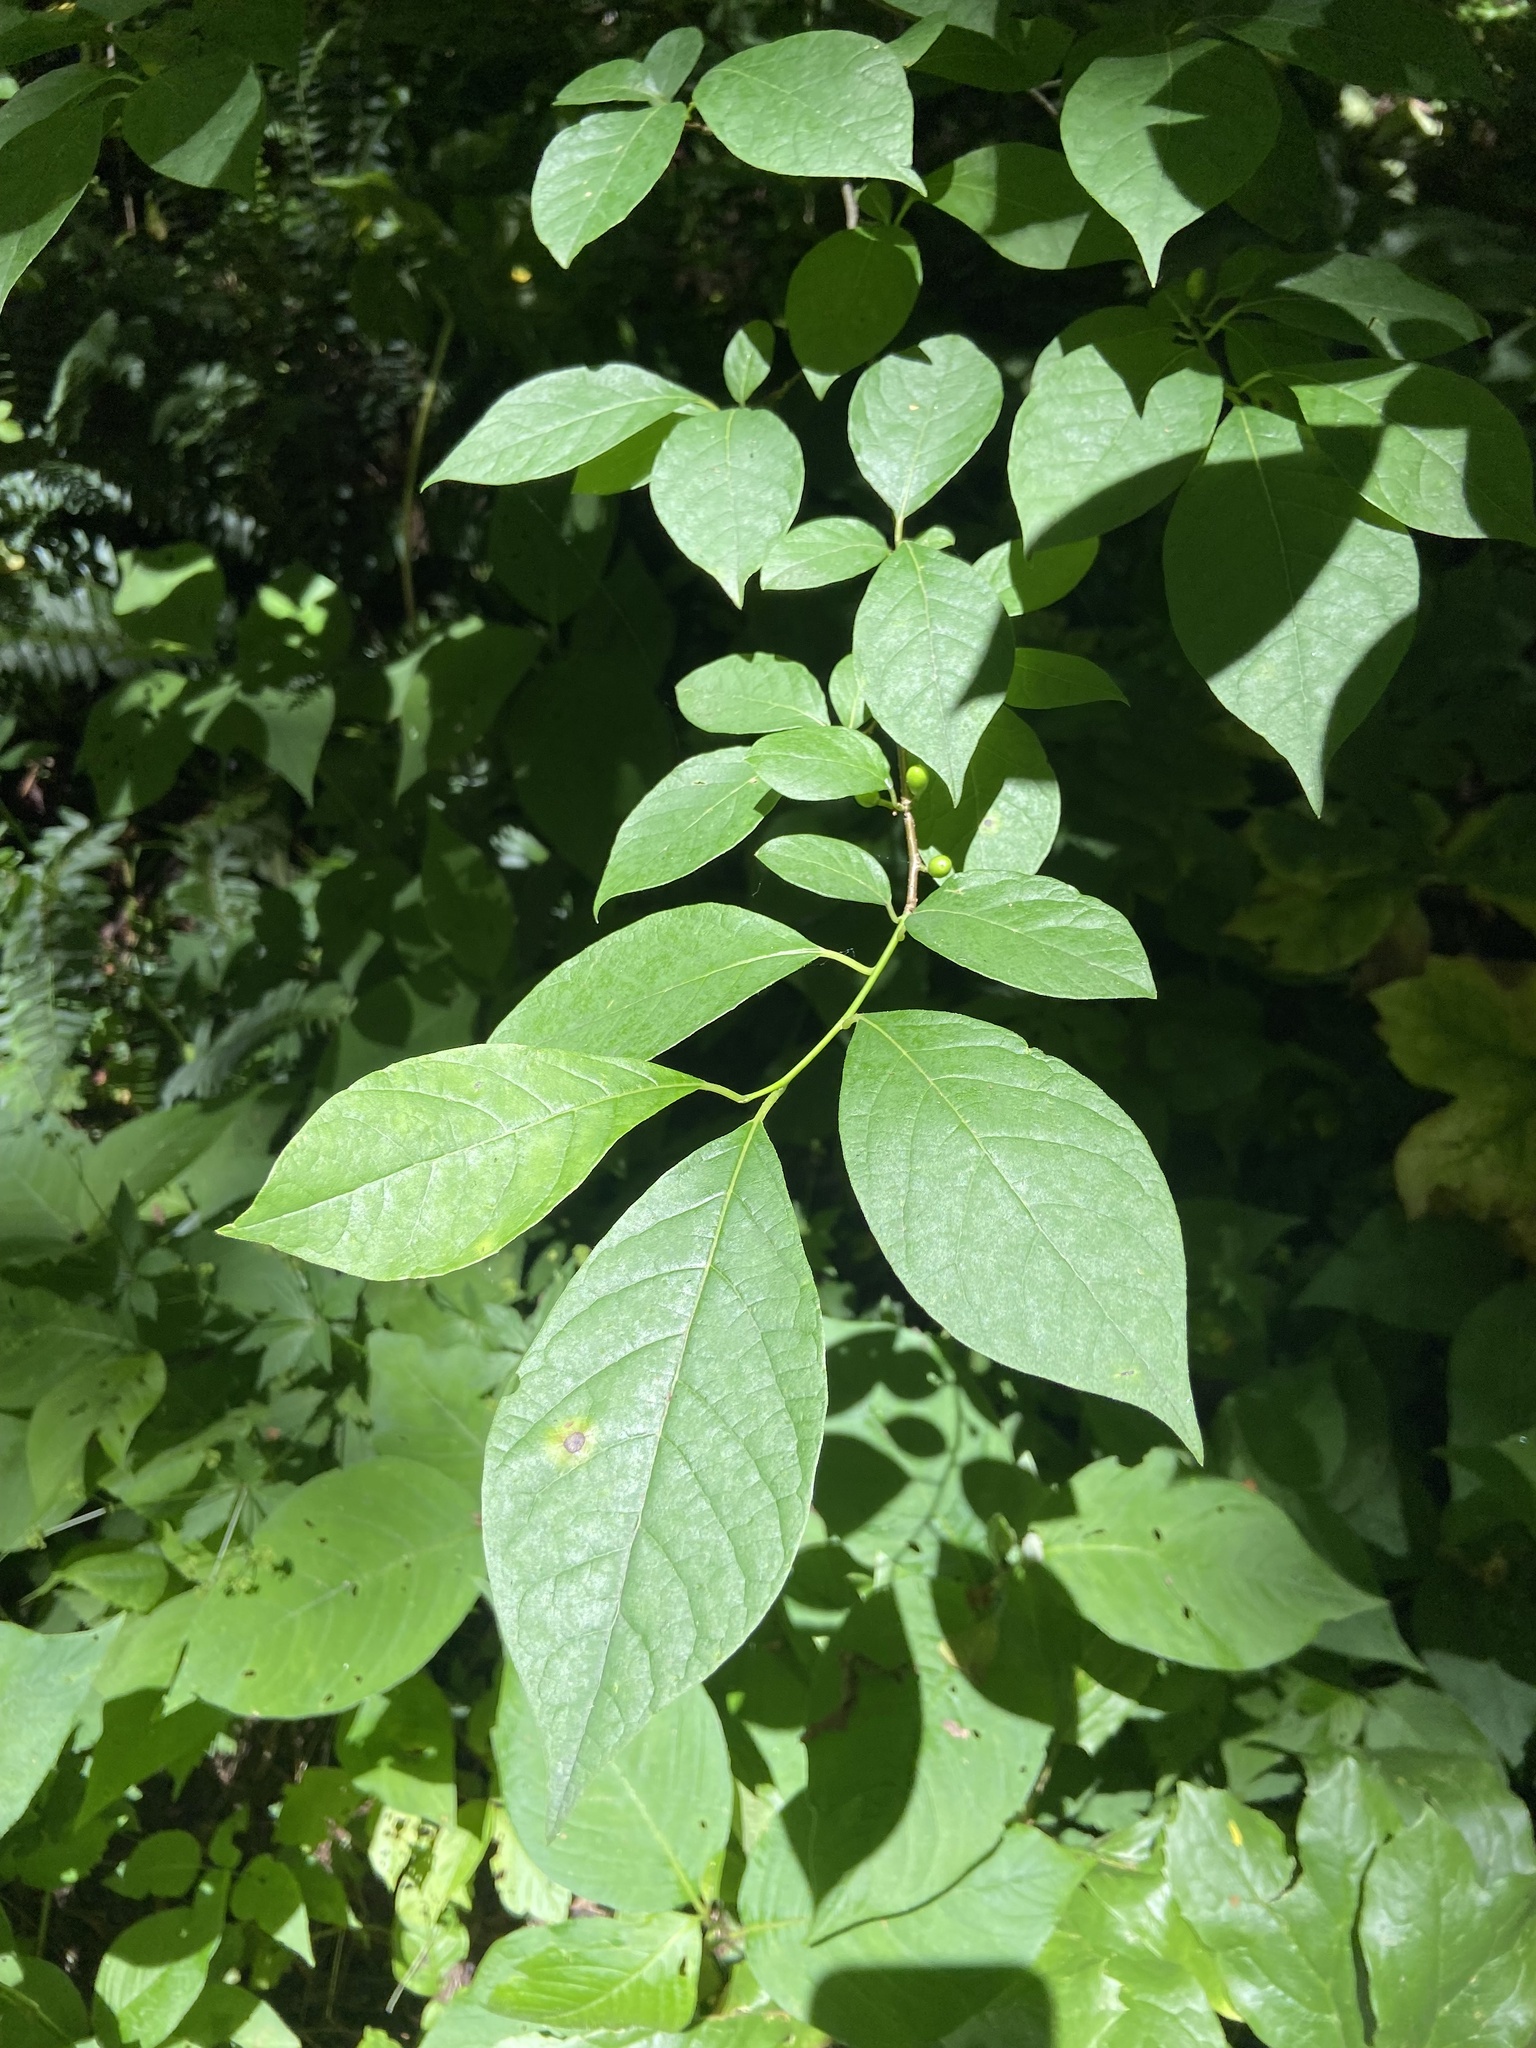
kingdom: Plantae
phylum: Tracheophyta
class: Magnoliopsida
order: Laurales
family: Lauraceae
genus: Lindera
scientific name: Lindera benzoin
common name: Spicebush
